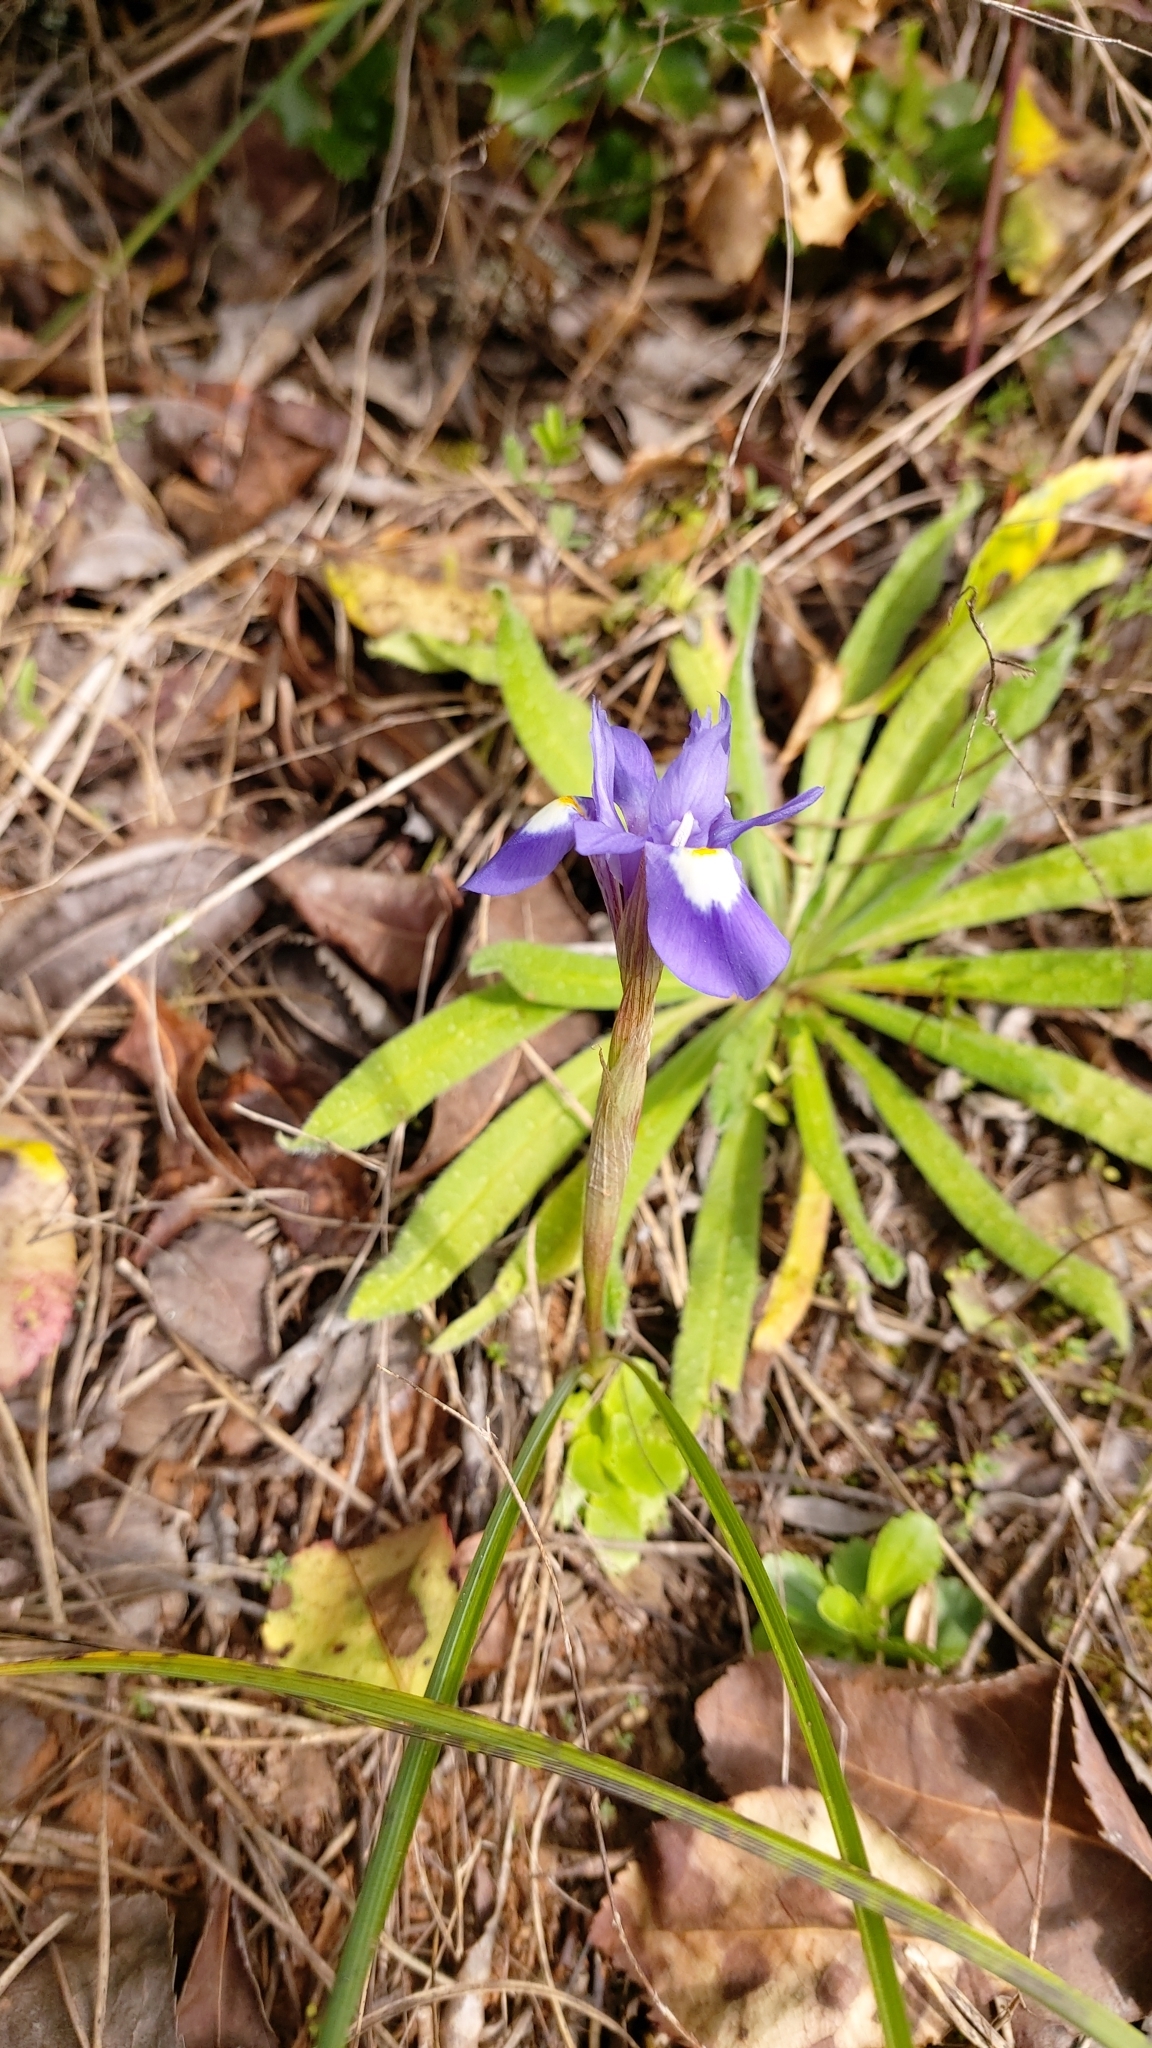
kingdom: Plantae
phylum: Tracheophyta
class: Liliopsida
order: Asparagales
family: Iridaceae
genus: Moraea
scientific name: Moraea sisyrinchium
